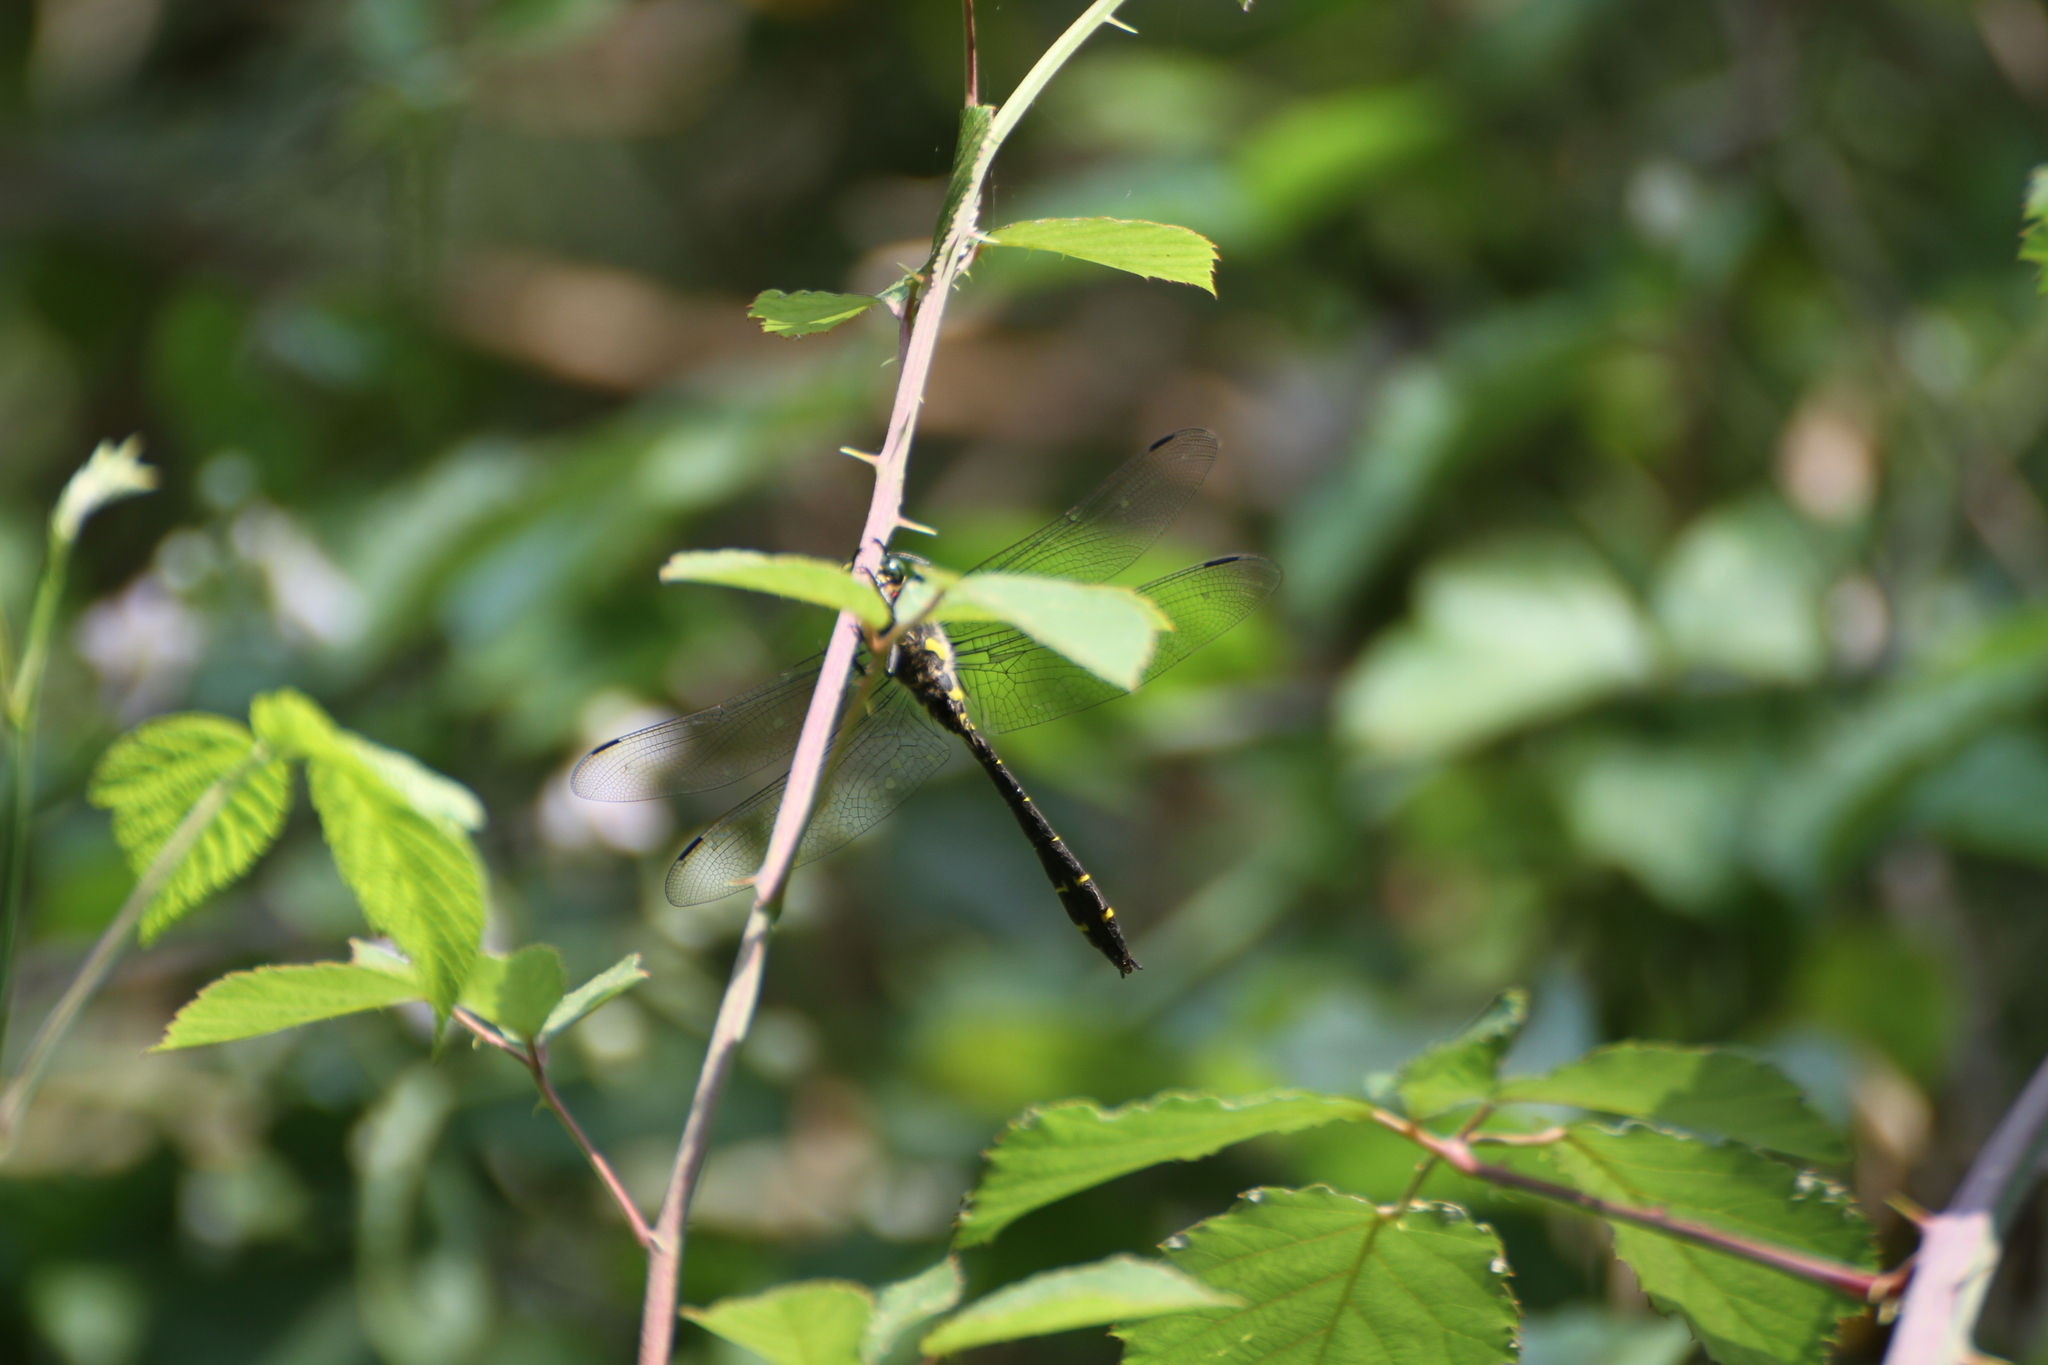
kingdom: Animalia
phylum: Arthropoda
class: Insecta
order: Odonata
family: Cordulegastridae
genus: Cordulegaster
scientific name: Cordulegaster bidentata
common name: Sombre goldenring
